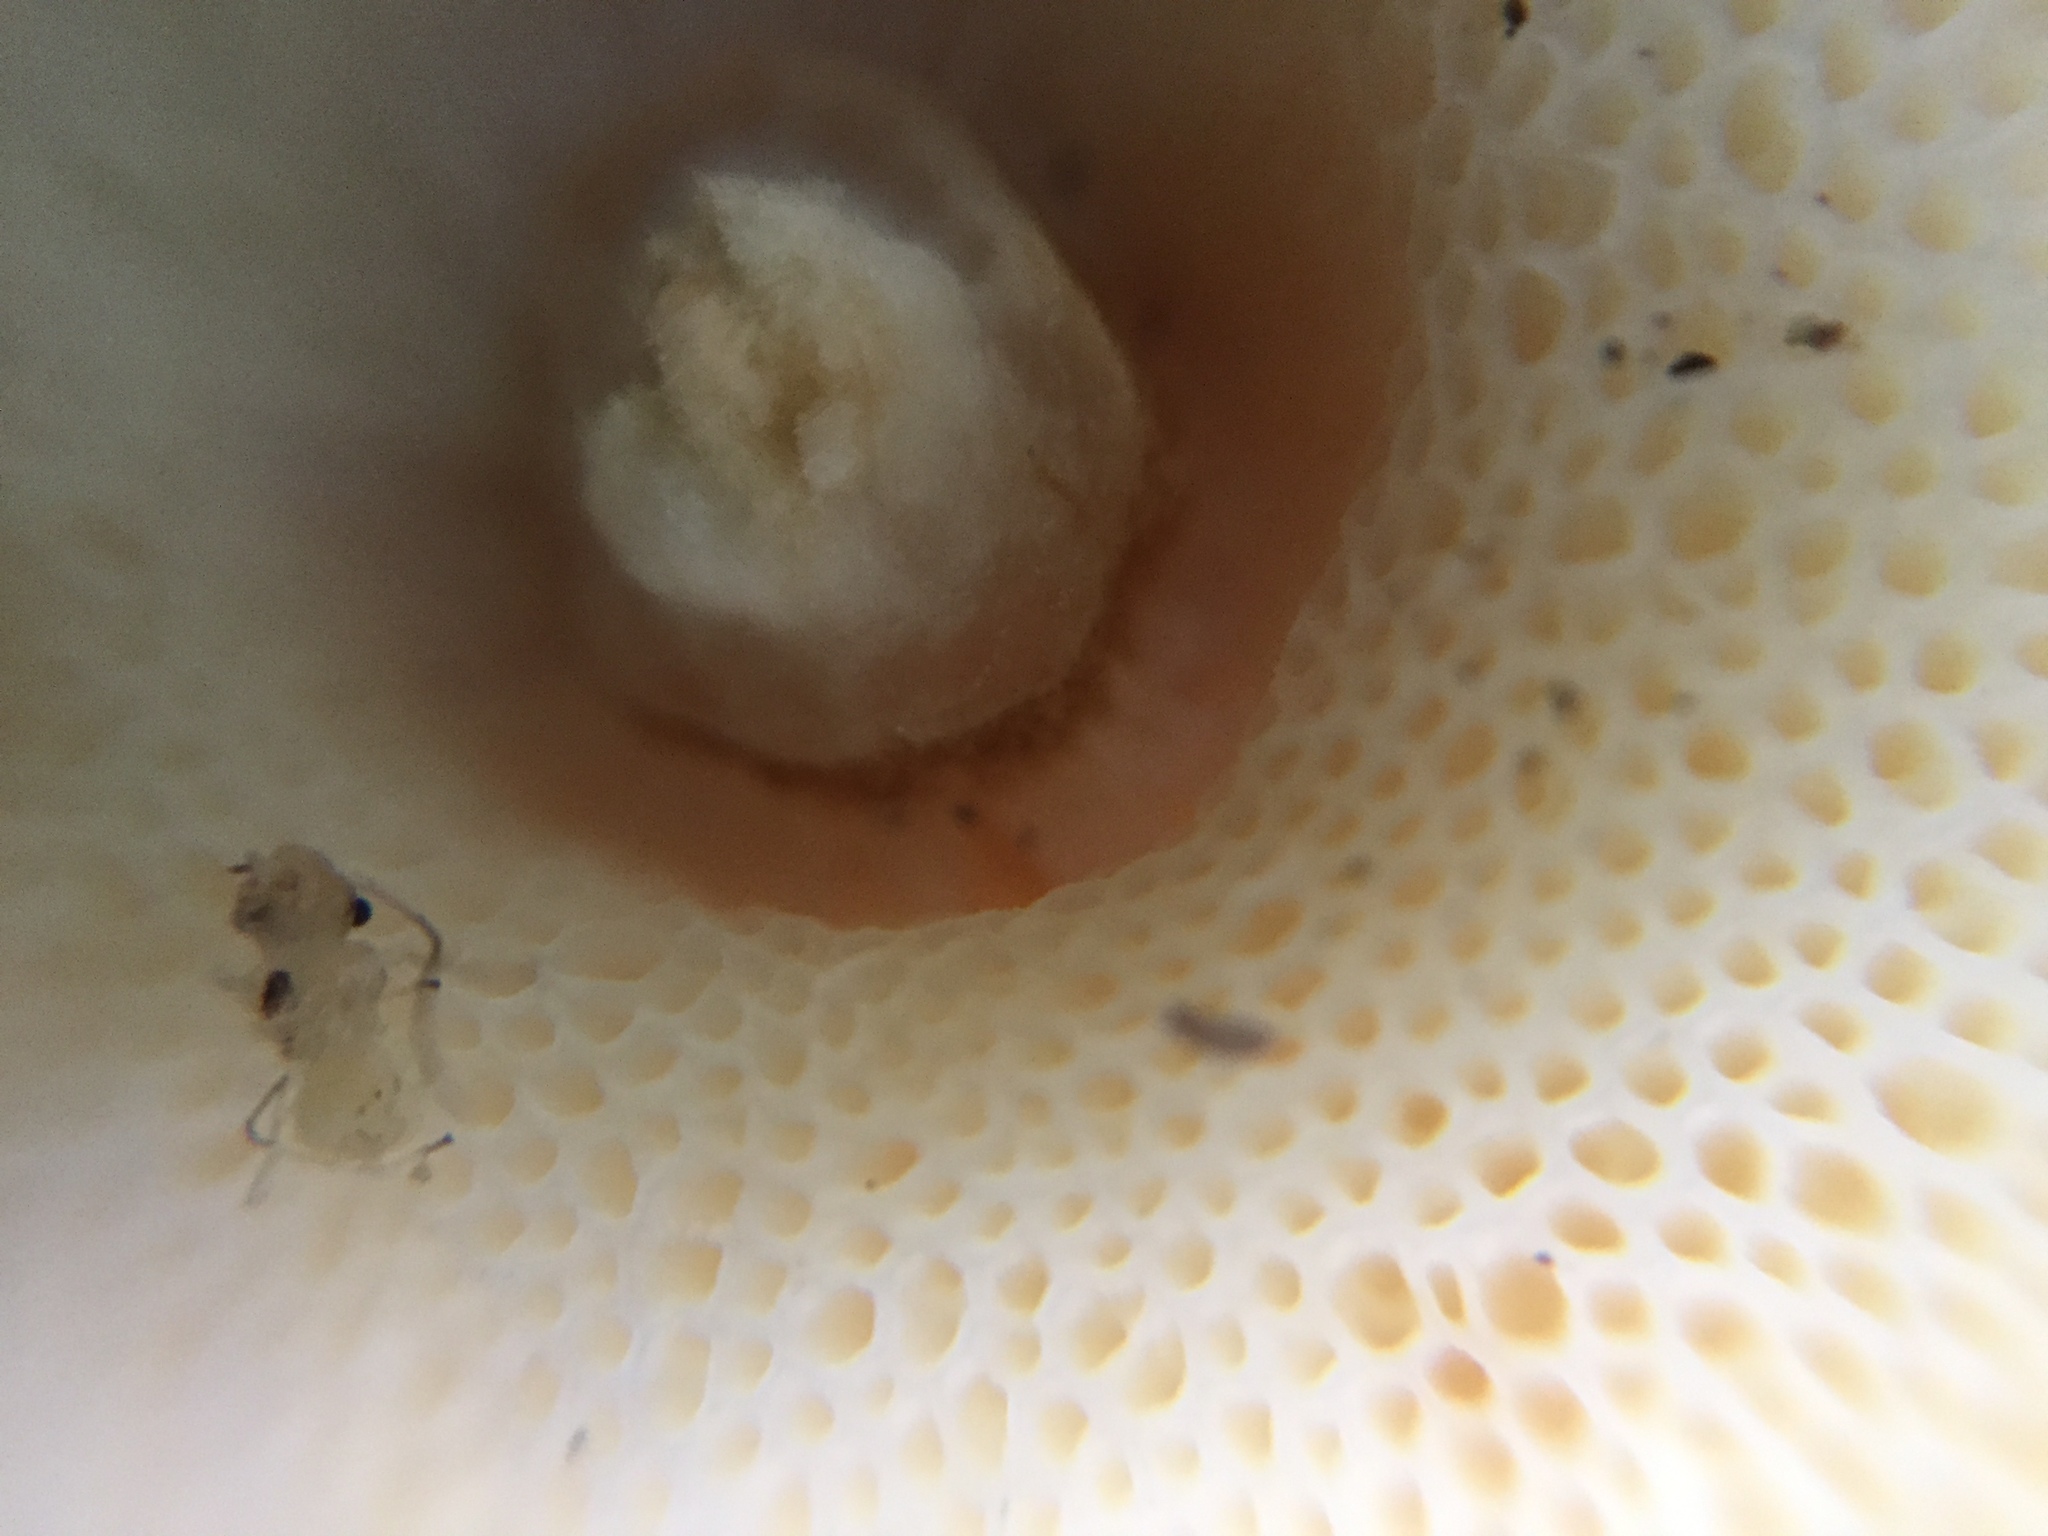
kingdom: Fungi
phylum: Basidiomycota
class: Agaricomycetes
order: Boletales
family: Gyroporaceae
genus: Gyroporus
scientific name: Gyroporus punctatus
